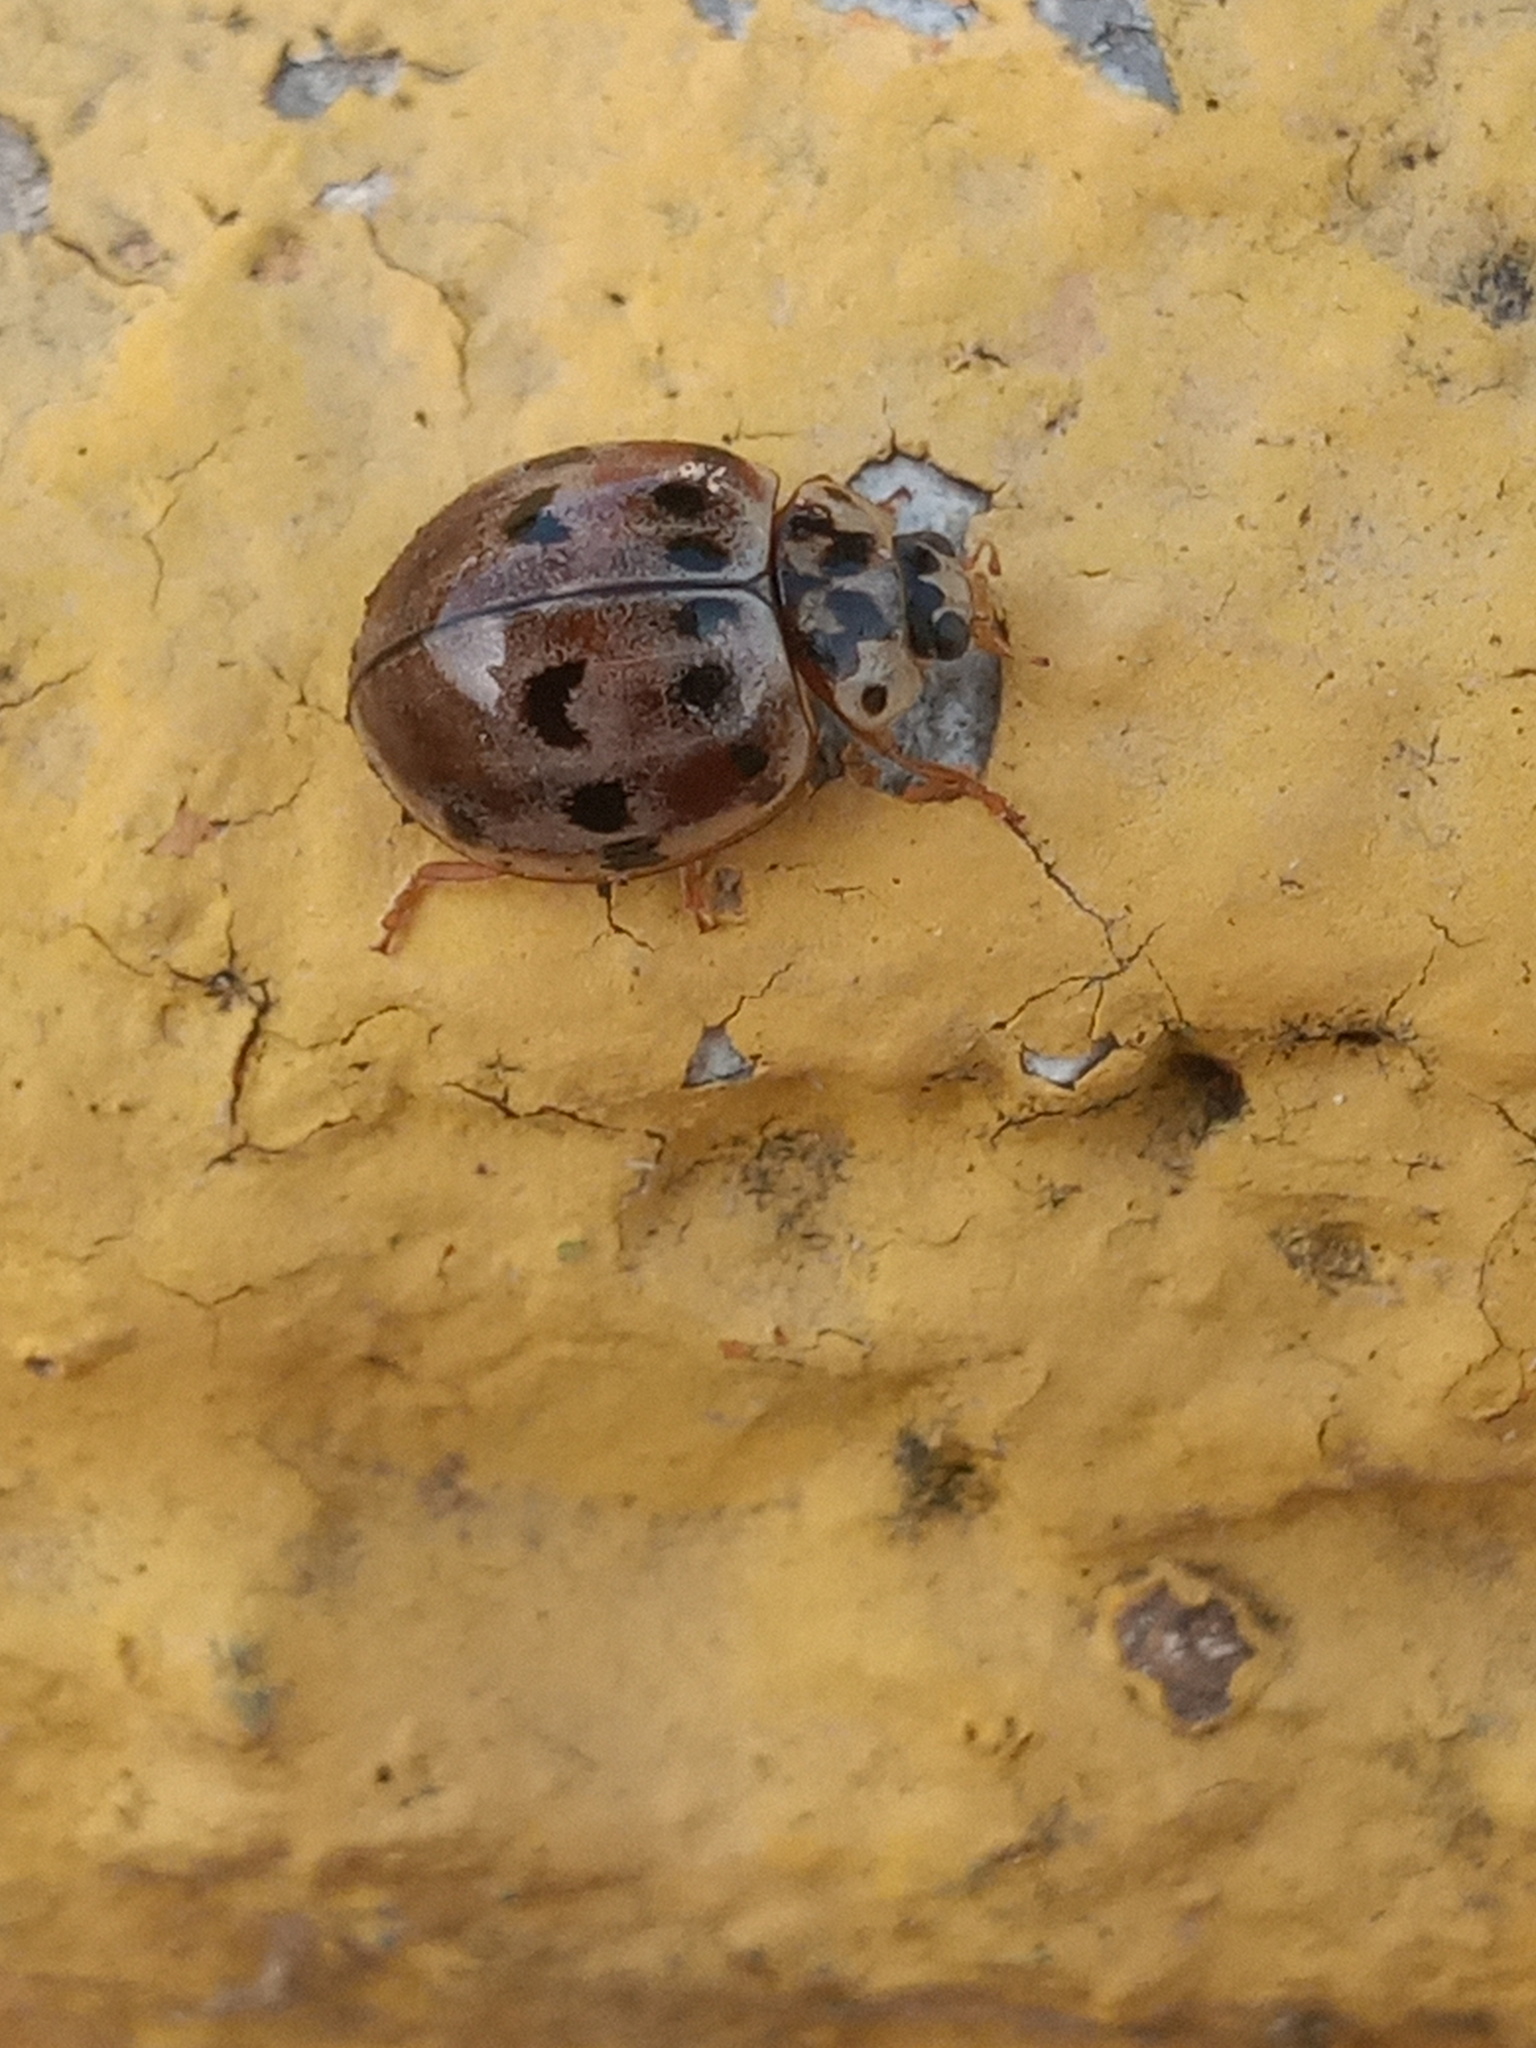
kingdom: Animalia
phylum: Arthropoda
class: Insecta
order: Coleoptera
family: Coccinellidae
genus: Olla
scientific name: Olla v-nigrum
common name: Ashy gray lady beetle
